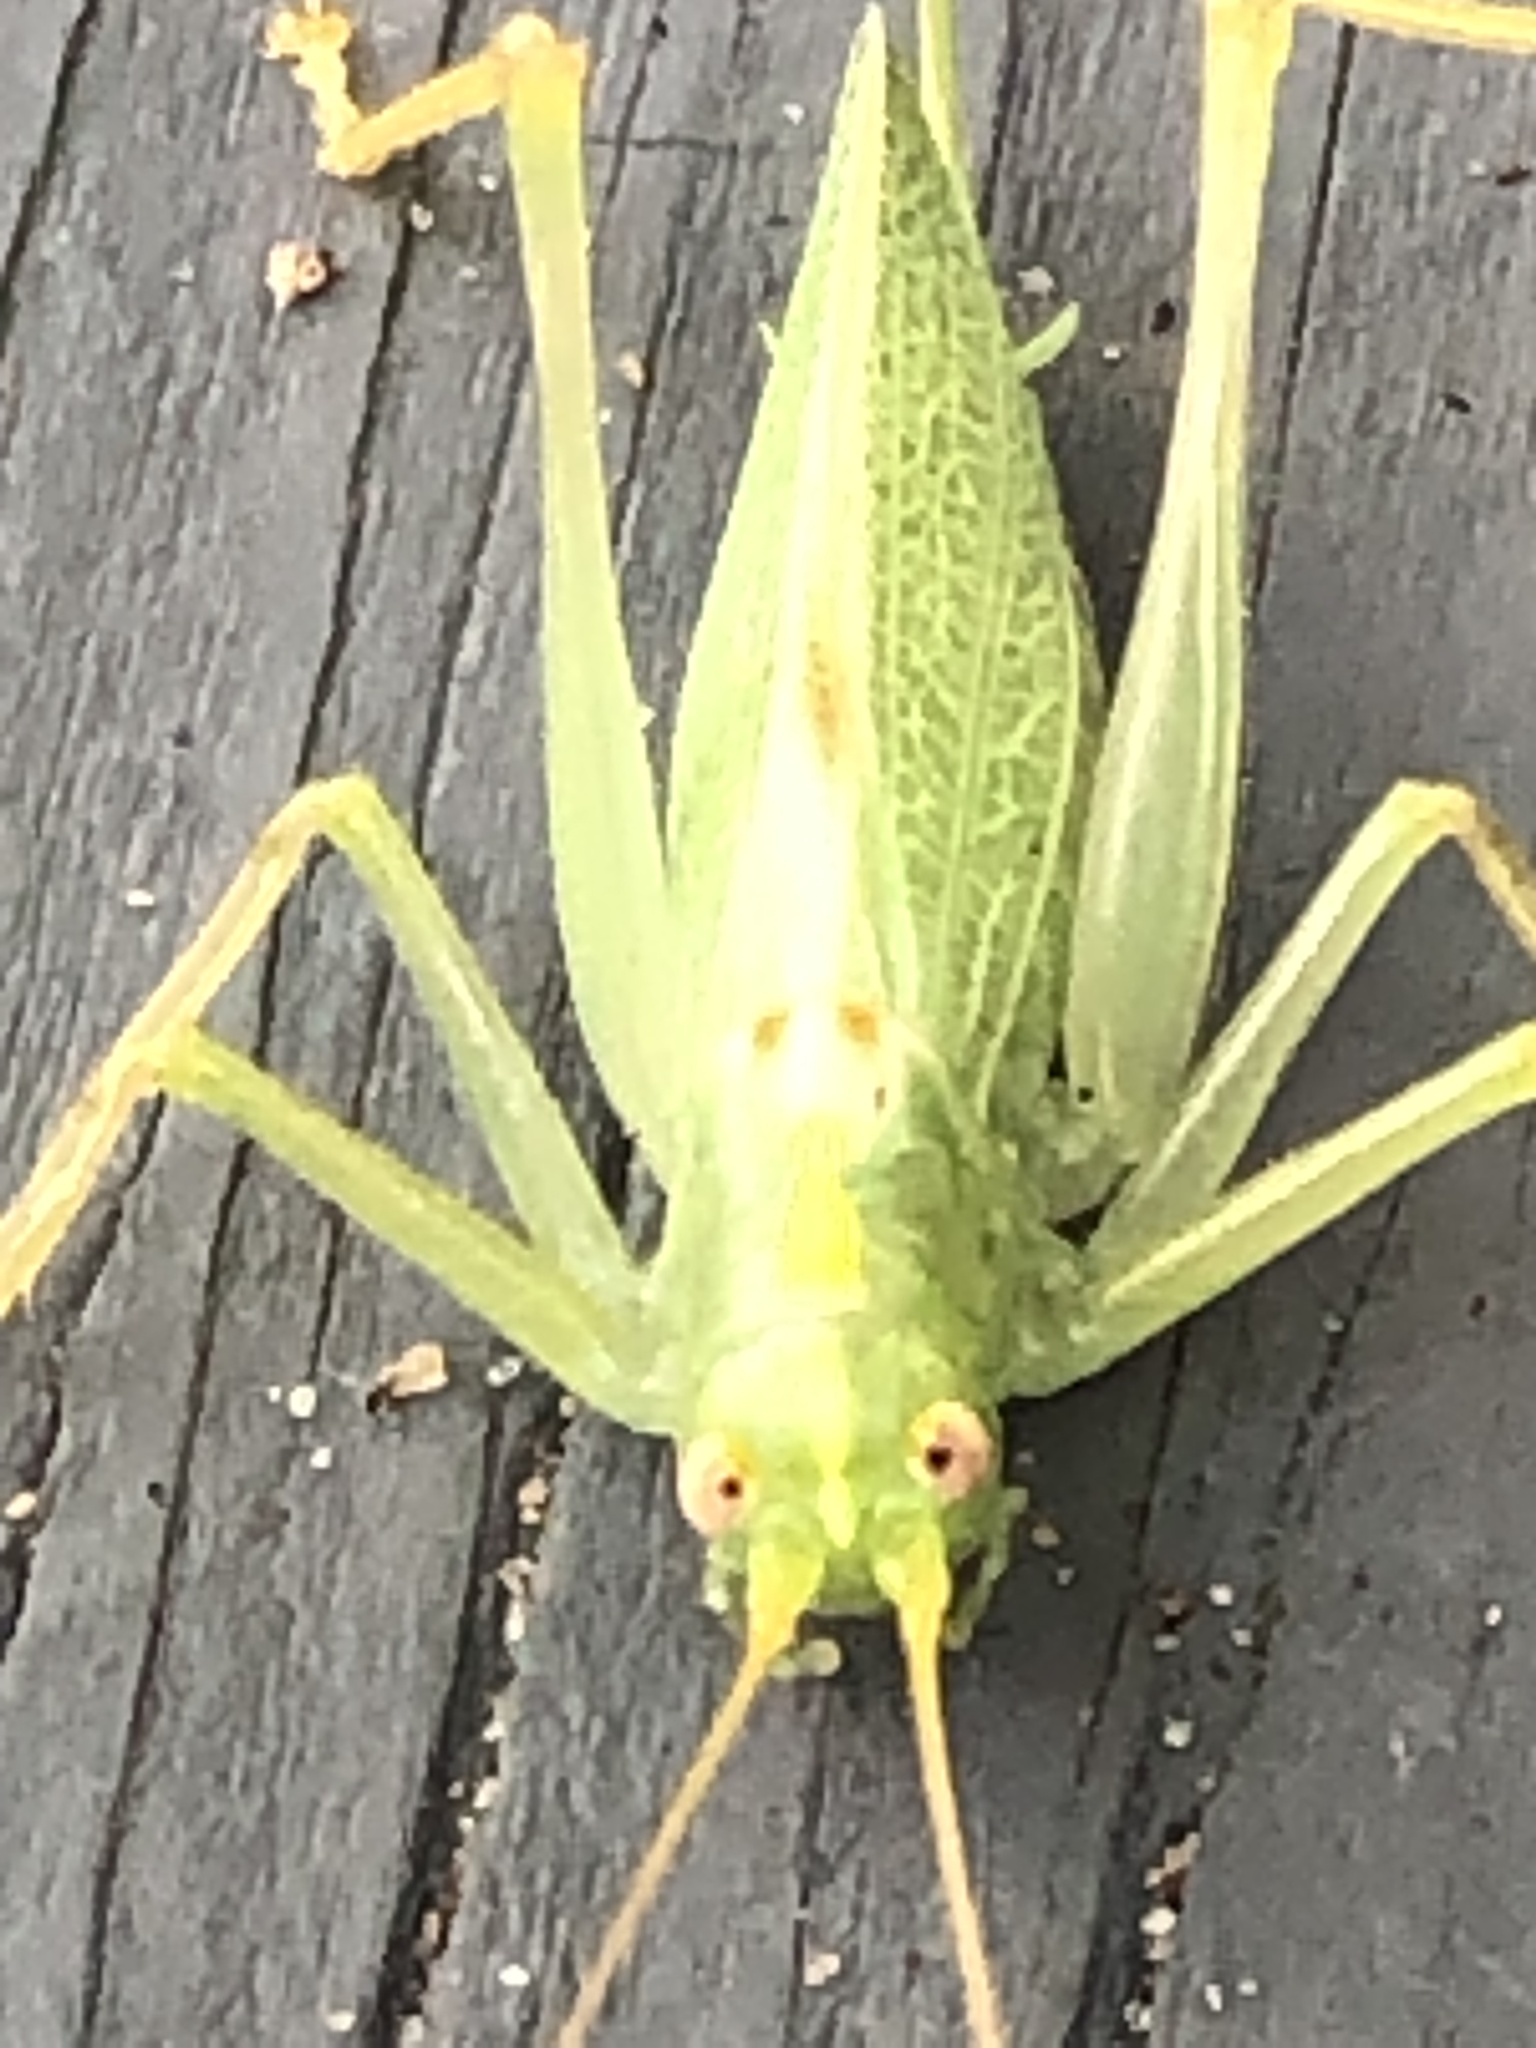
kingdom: Animalia
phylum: Arthropoda
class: Insecta
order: Orthoptera
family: Tettigoniidae
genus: Meconema
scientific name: Meconema thalassinum
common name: Oak bush-cricket
